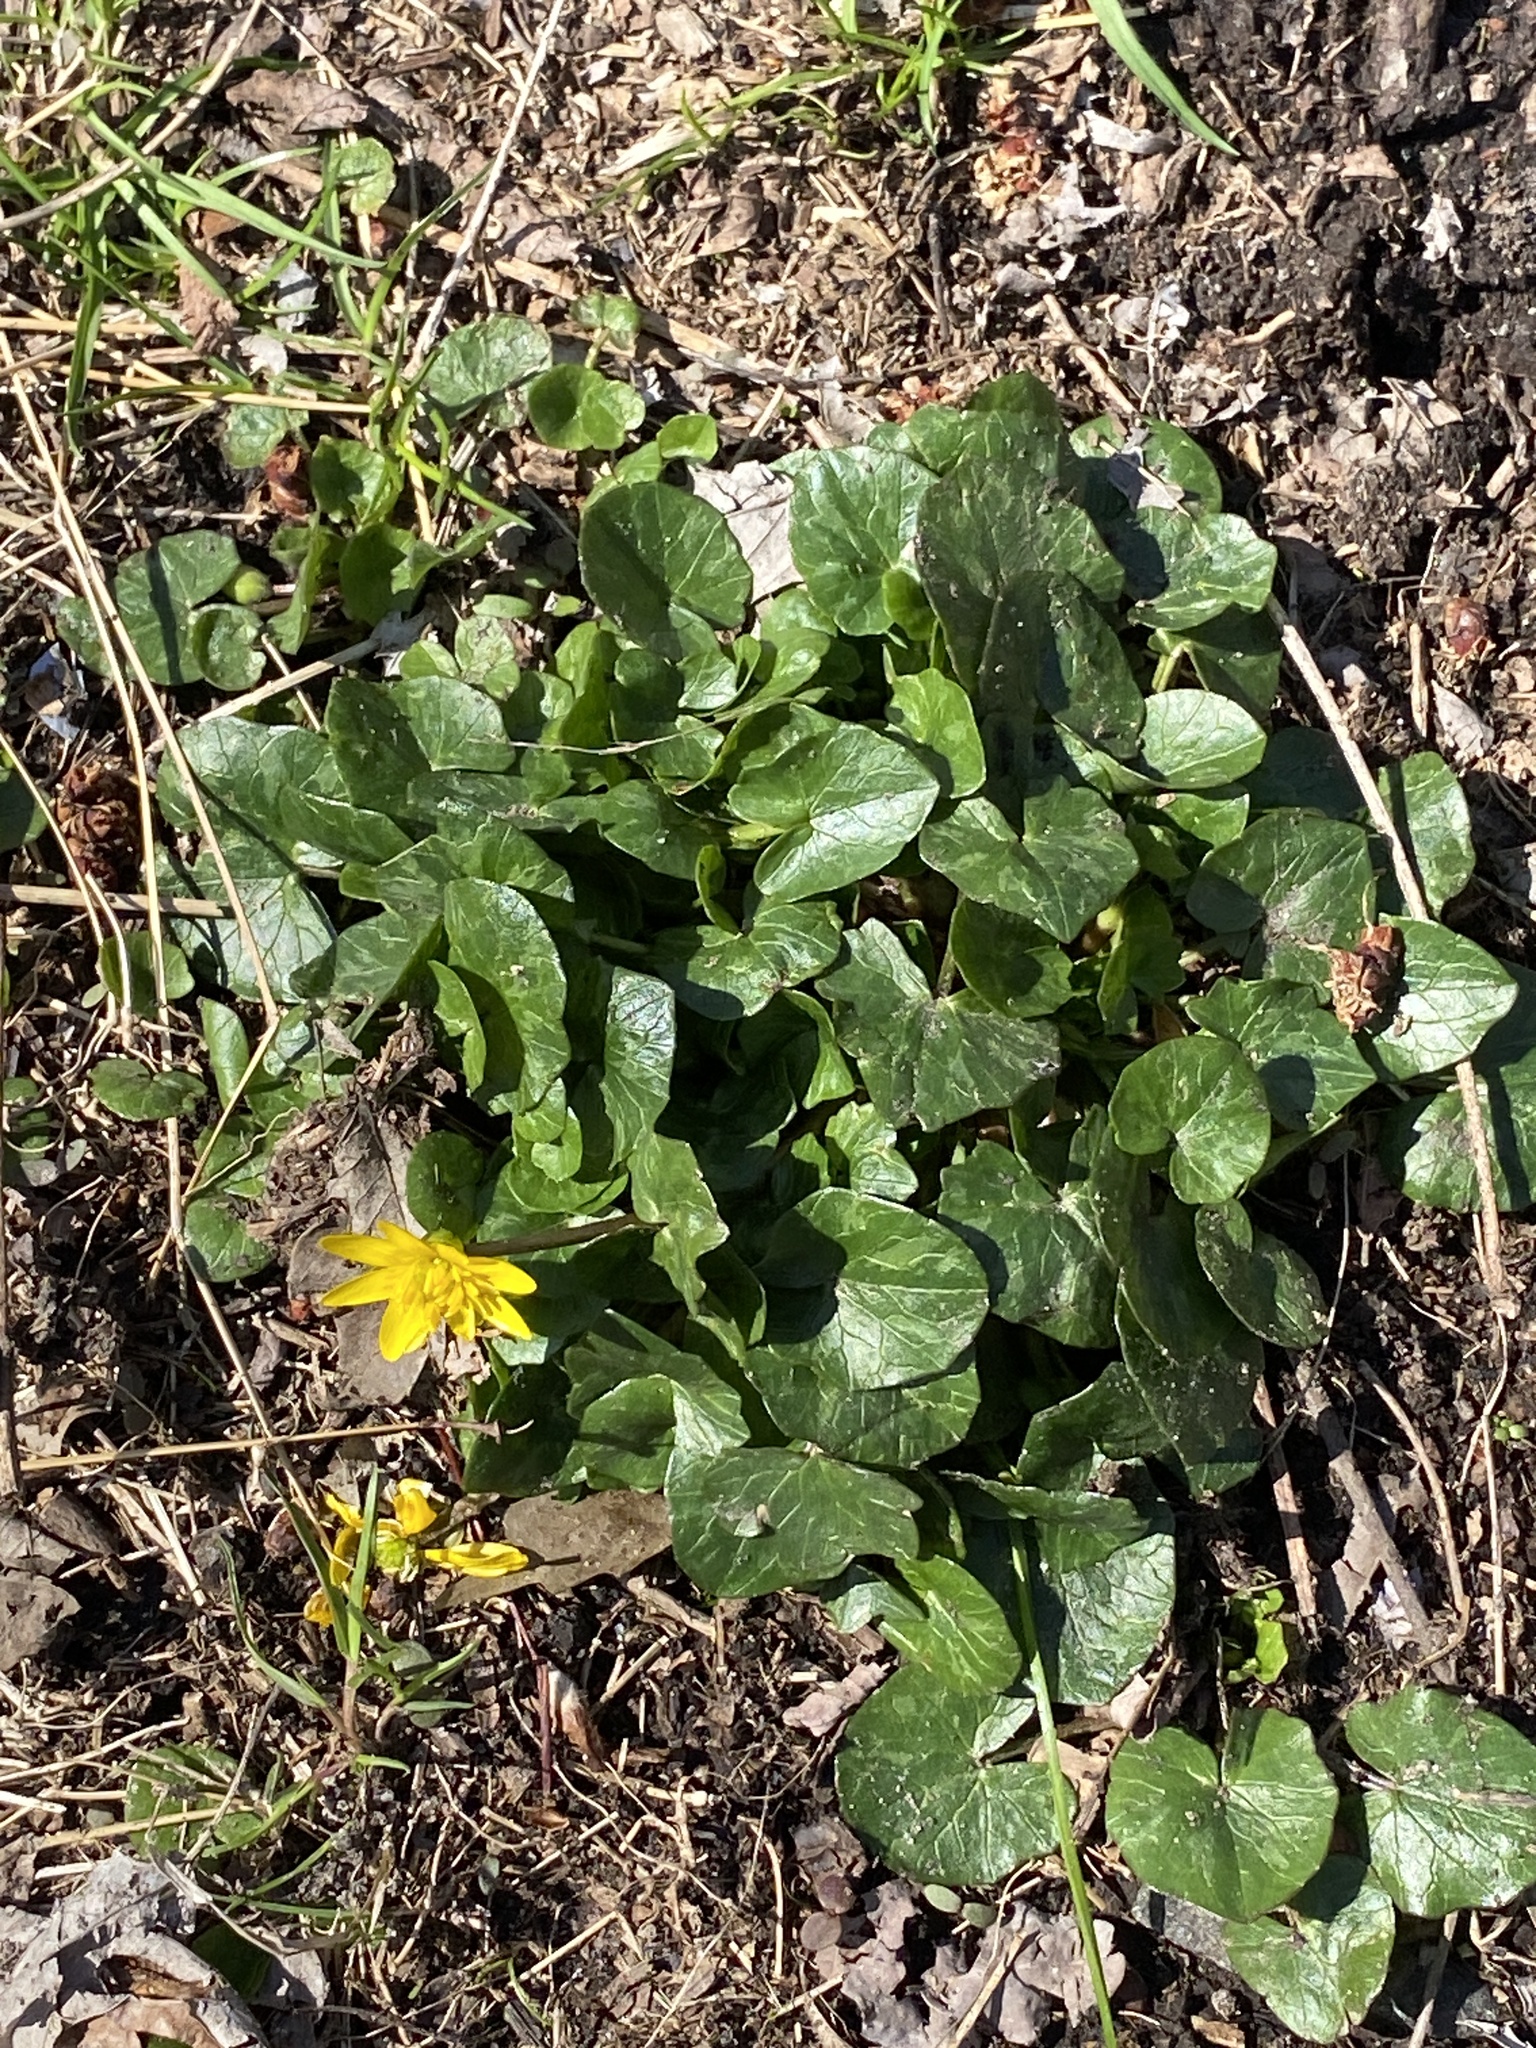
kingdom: Plantae
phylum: Tracheophyta
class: Magnoliopsida
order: Ranunculales
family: Ranunculaceae
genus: Ficaria
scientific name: Ficaria verna
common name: Lesser celandine
